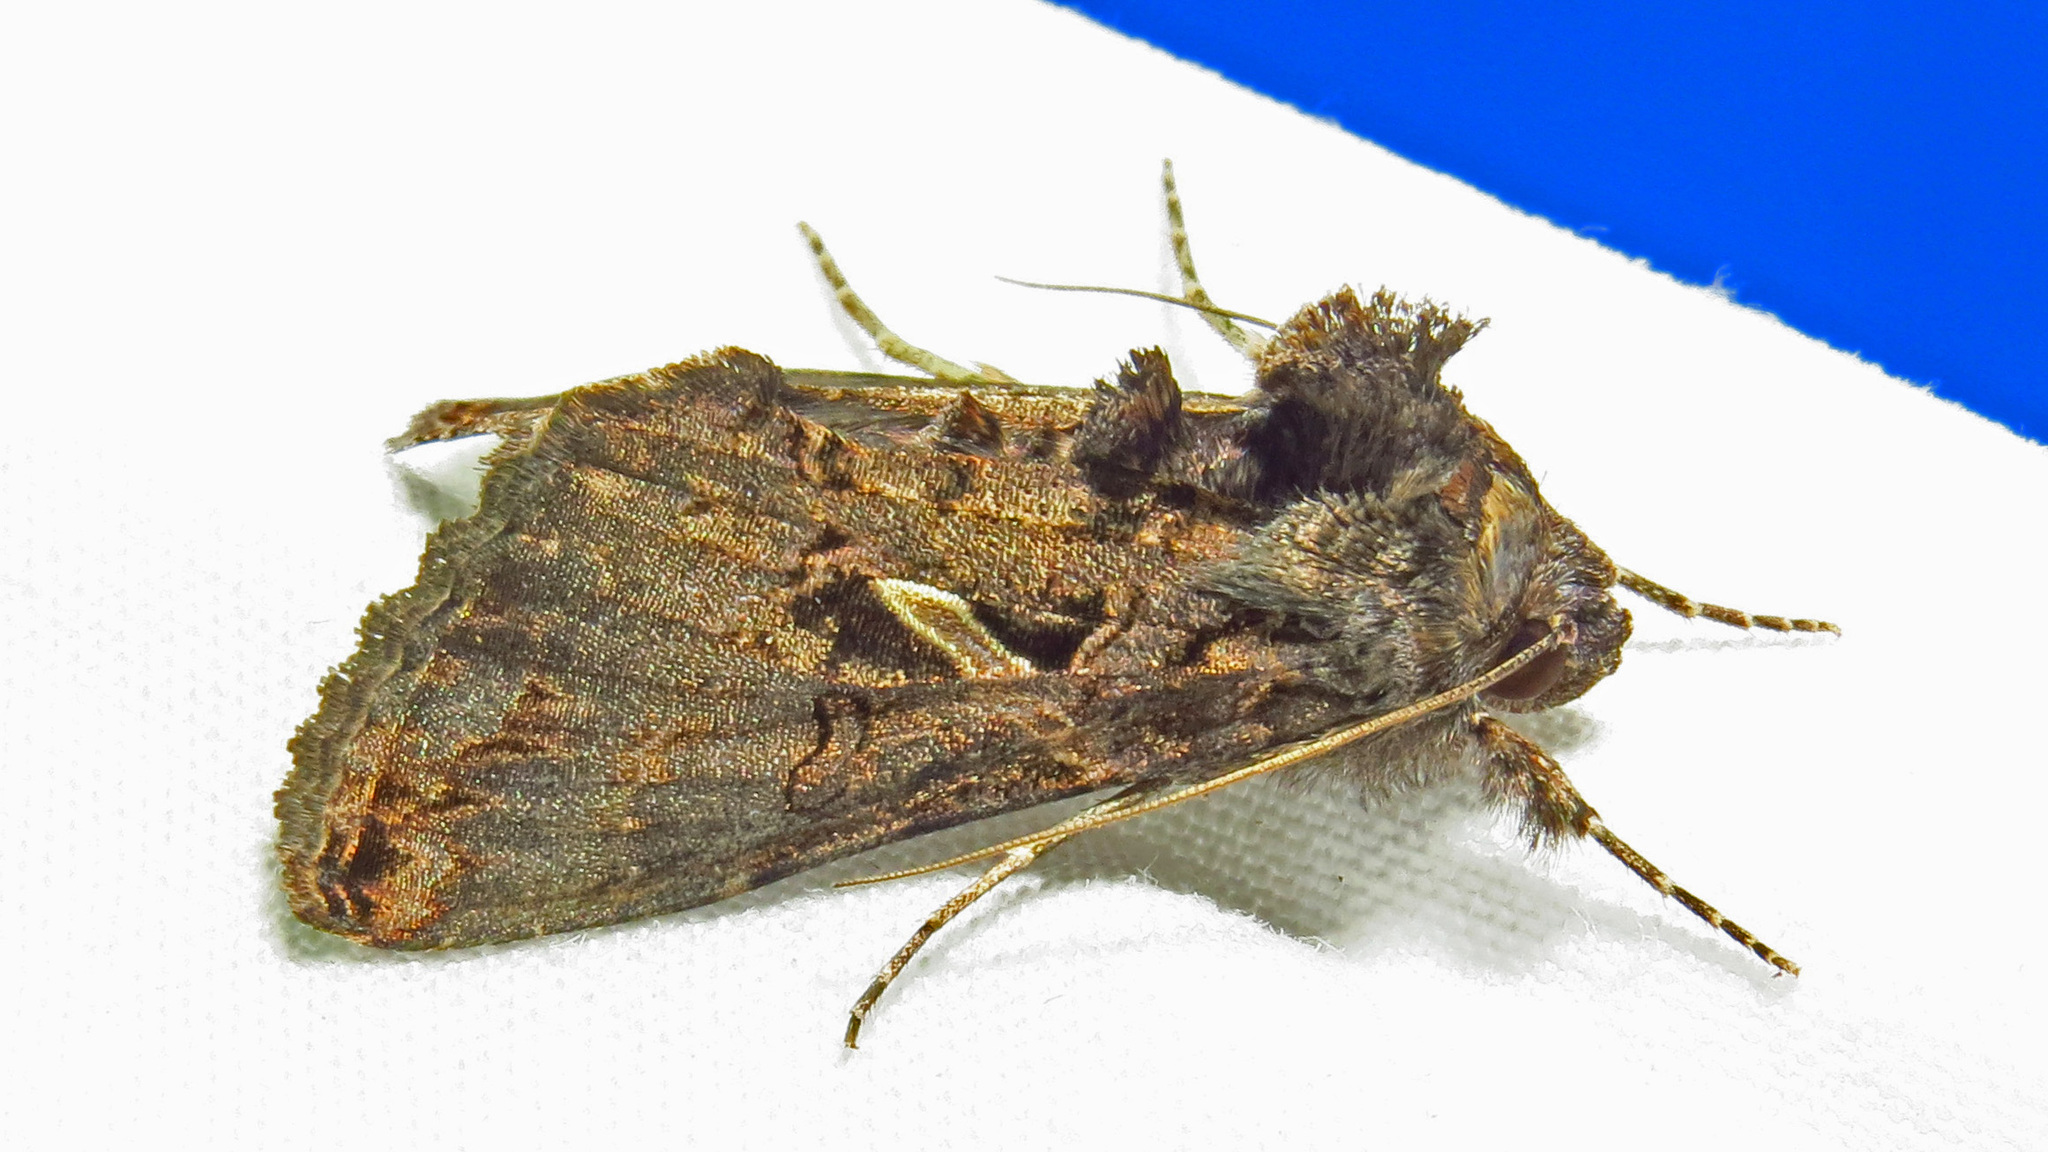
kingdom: Animalia
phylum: Arthropoda
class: Insecta
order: Lepidoptera
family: Noctuidae
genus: Ctenoplusia
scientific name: Ctenoplusia oxygramma
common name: Sharp-stigma looper moth
